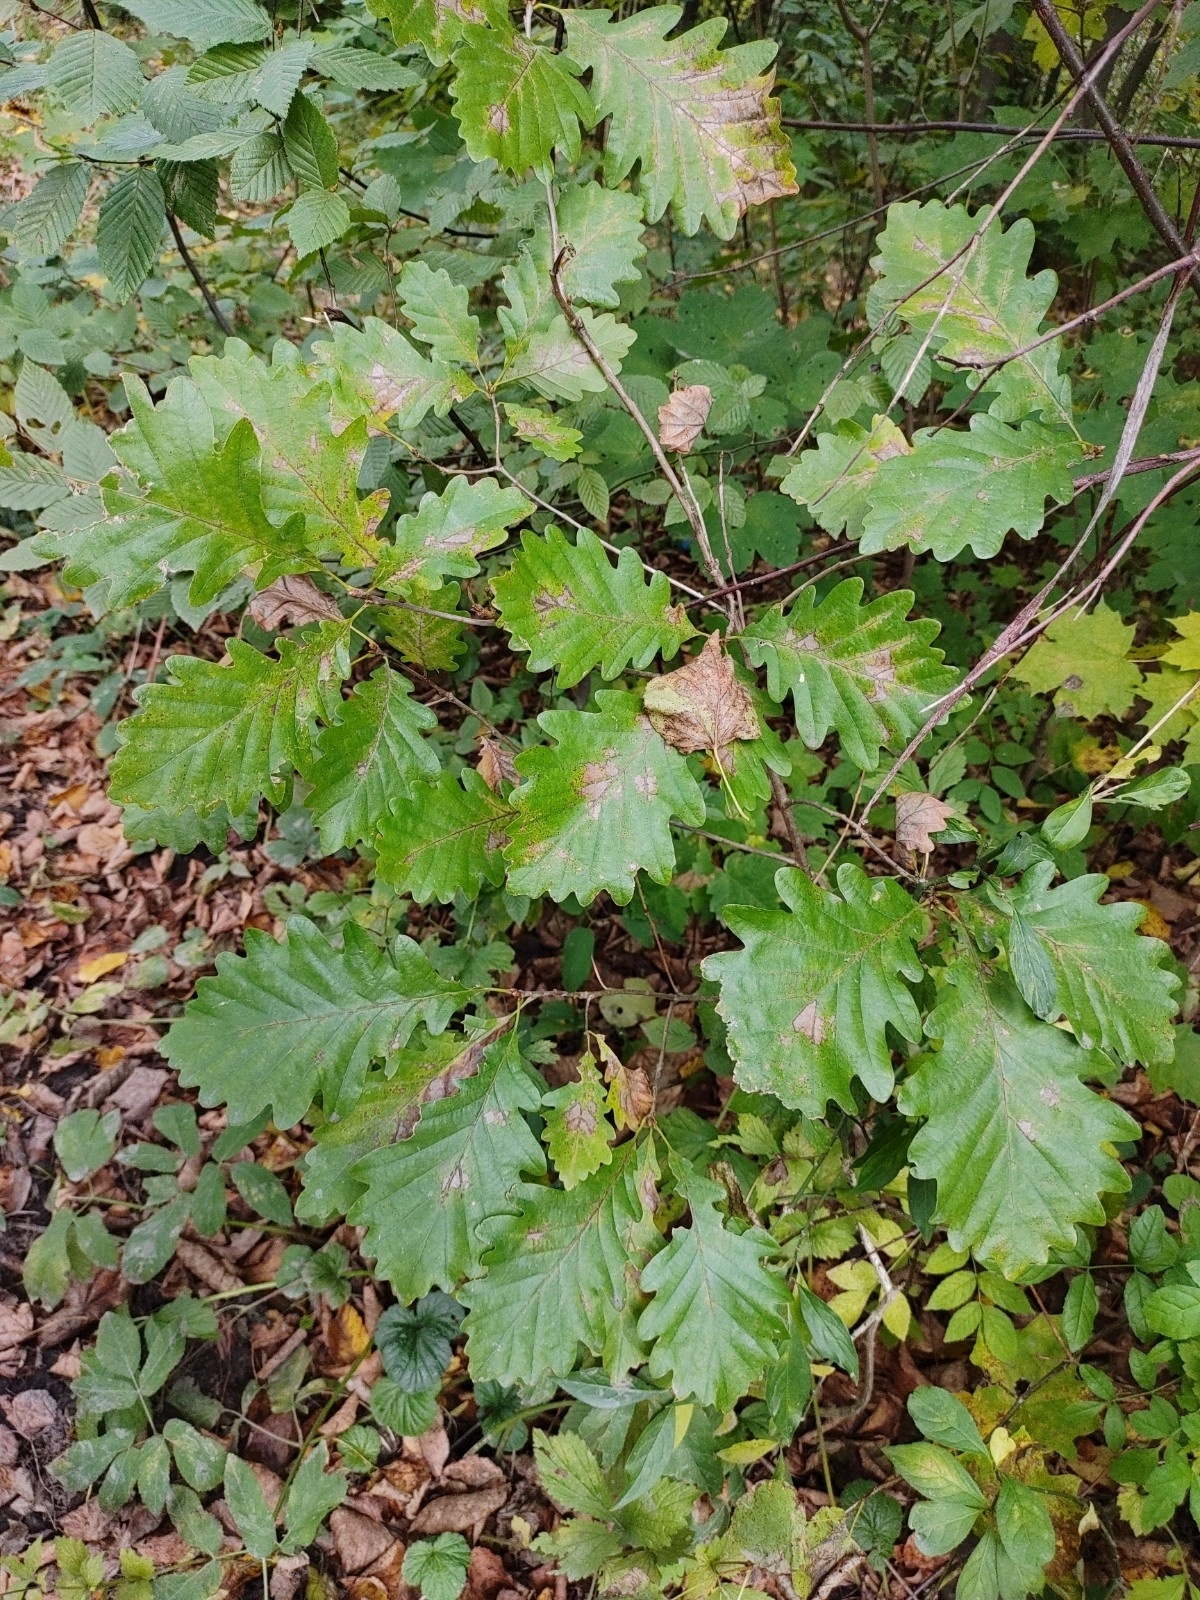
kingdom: Plantae
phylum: Tracheophyta
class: Magnoliopsida
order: Fagales
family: Fagaceae
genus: Quercus
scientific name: Quercus petraea
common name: Sessile oak
